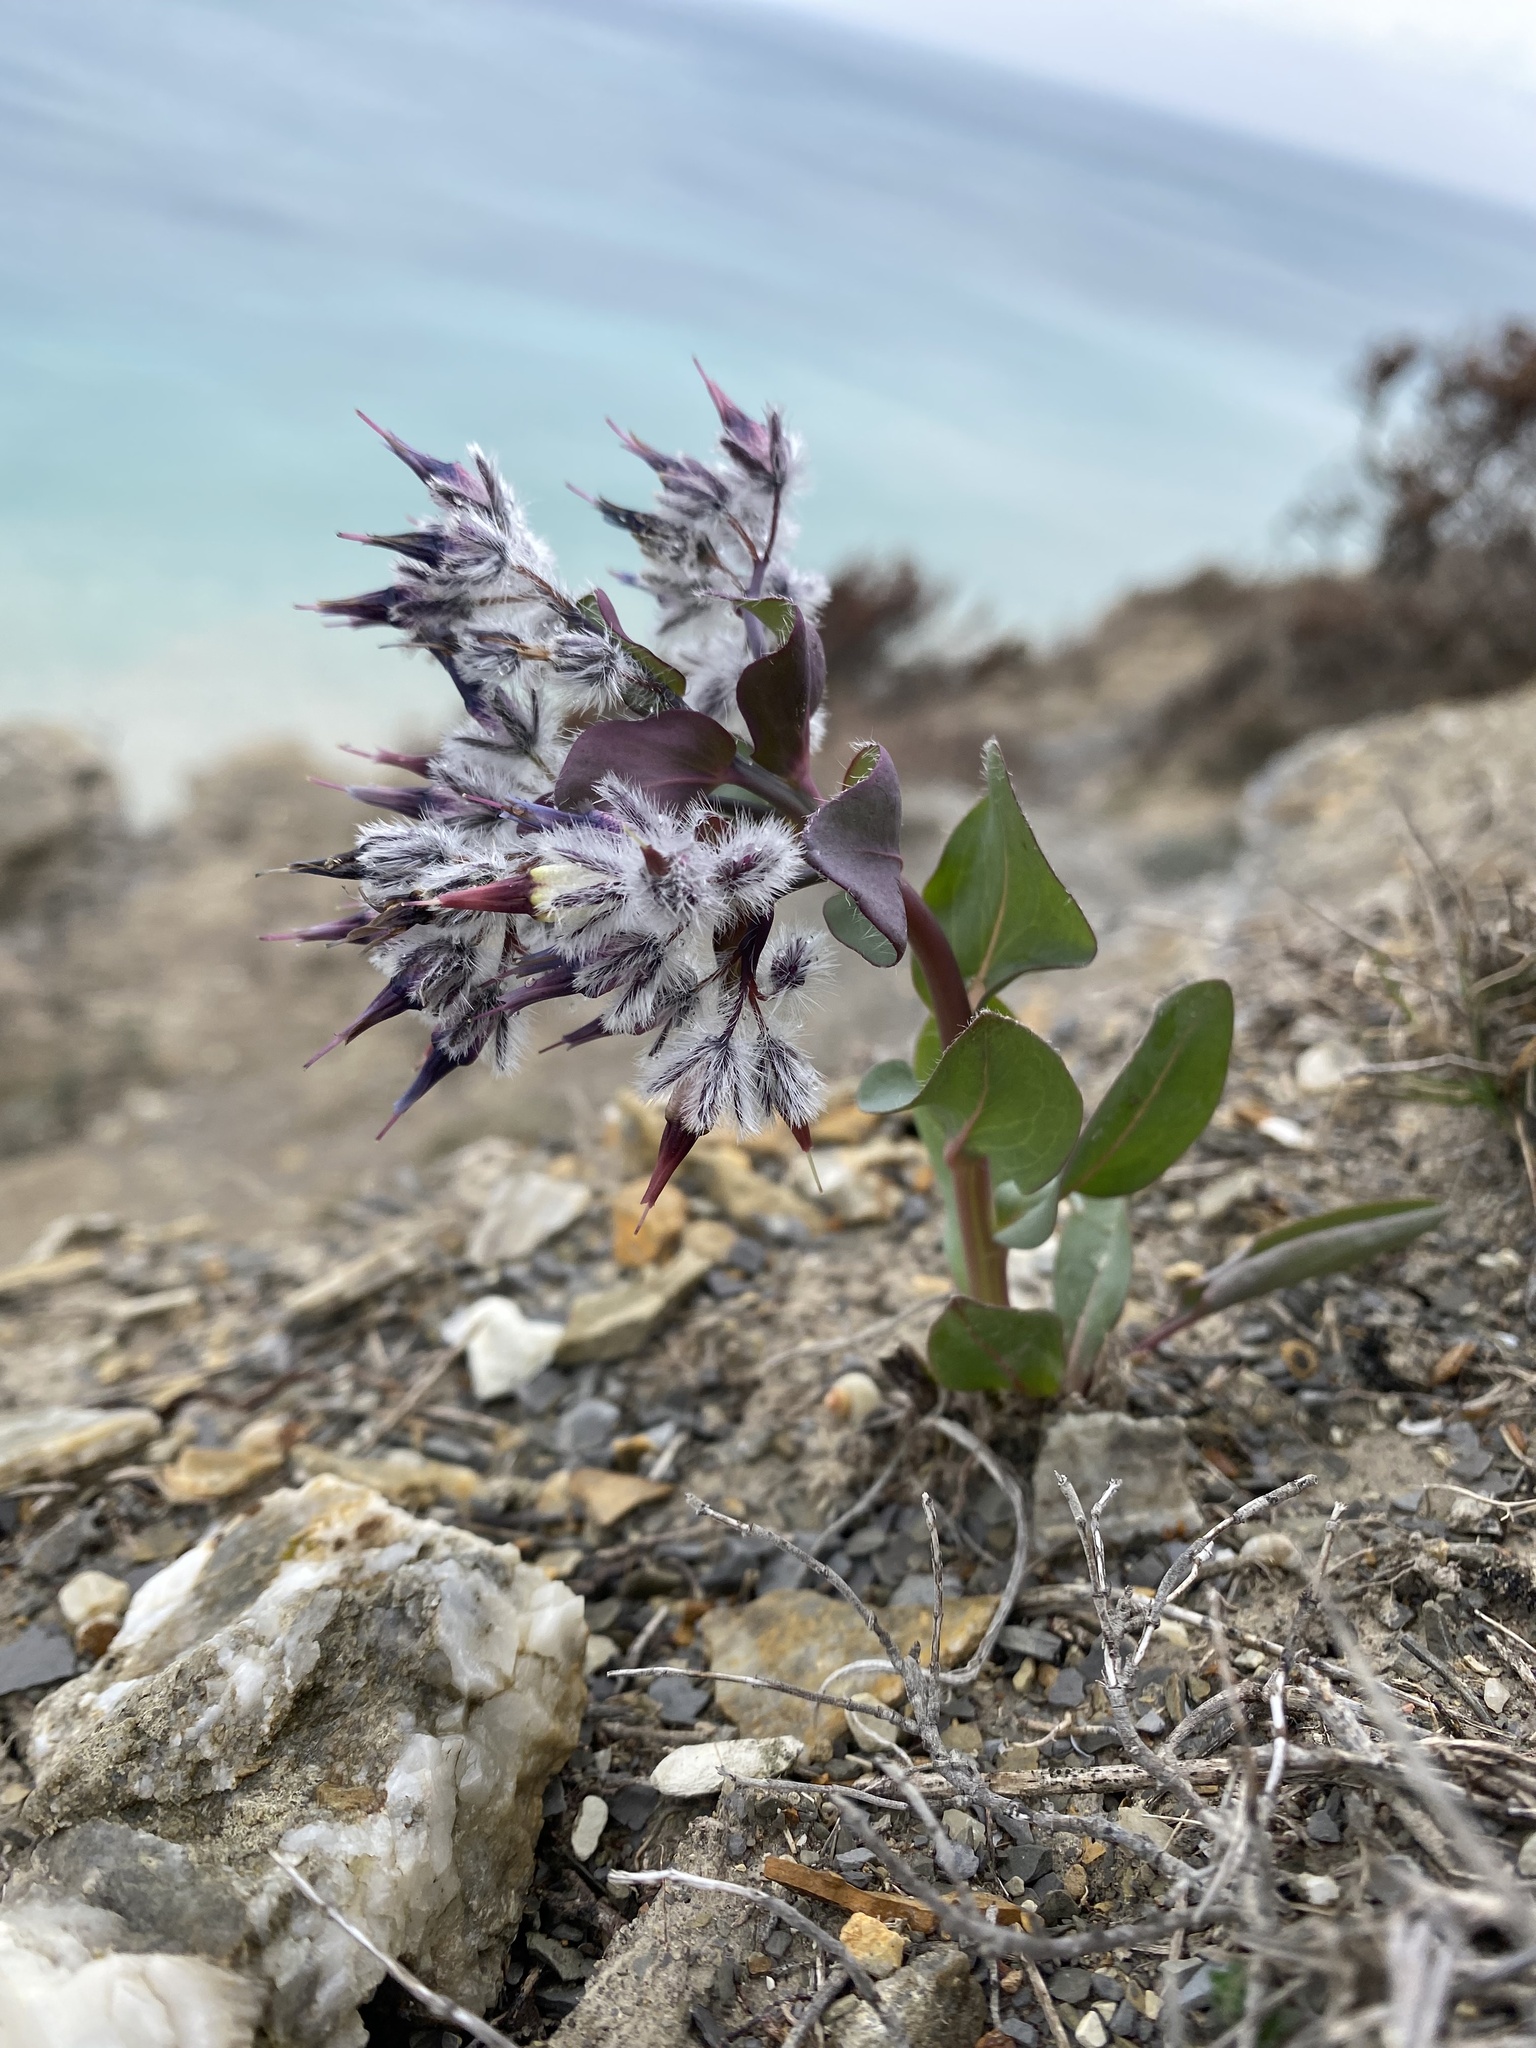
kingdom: Plantae
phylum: Tracheophyta
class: Magnoliopsida
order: Boraginales
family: Boraginaceae
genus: Rindera
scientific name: Rindera tetraspis
